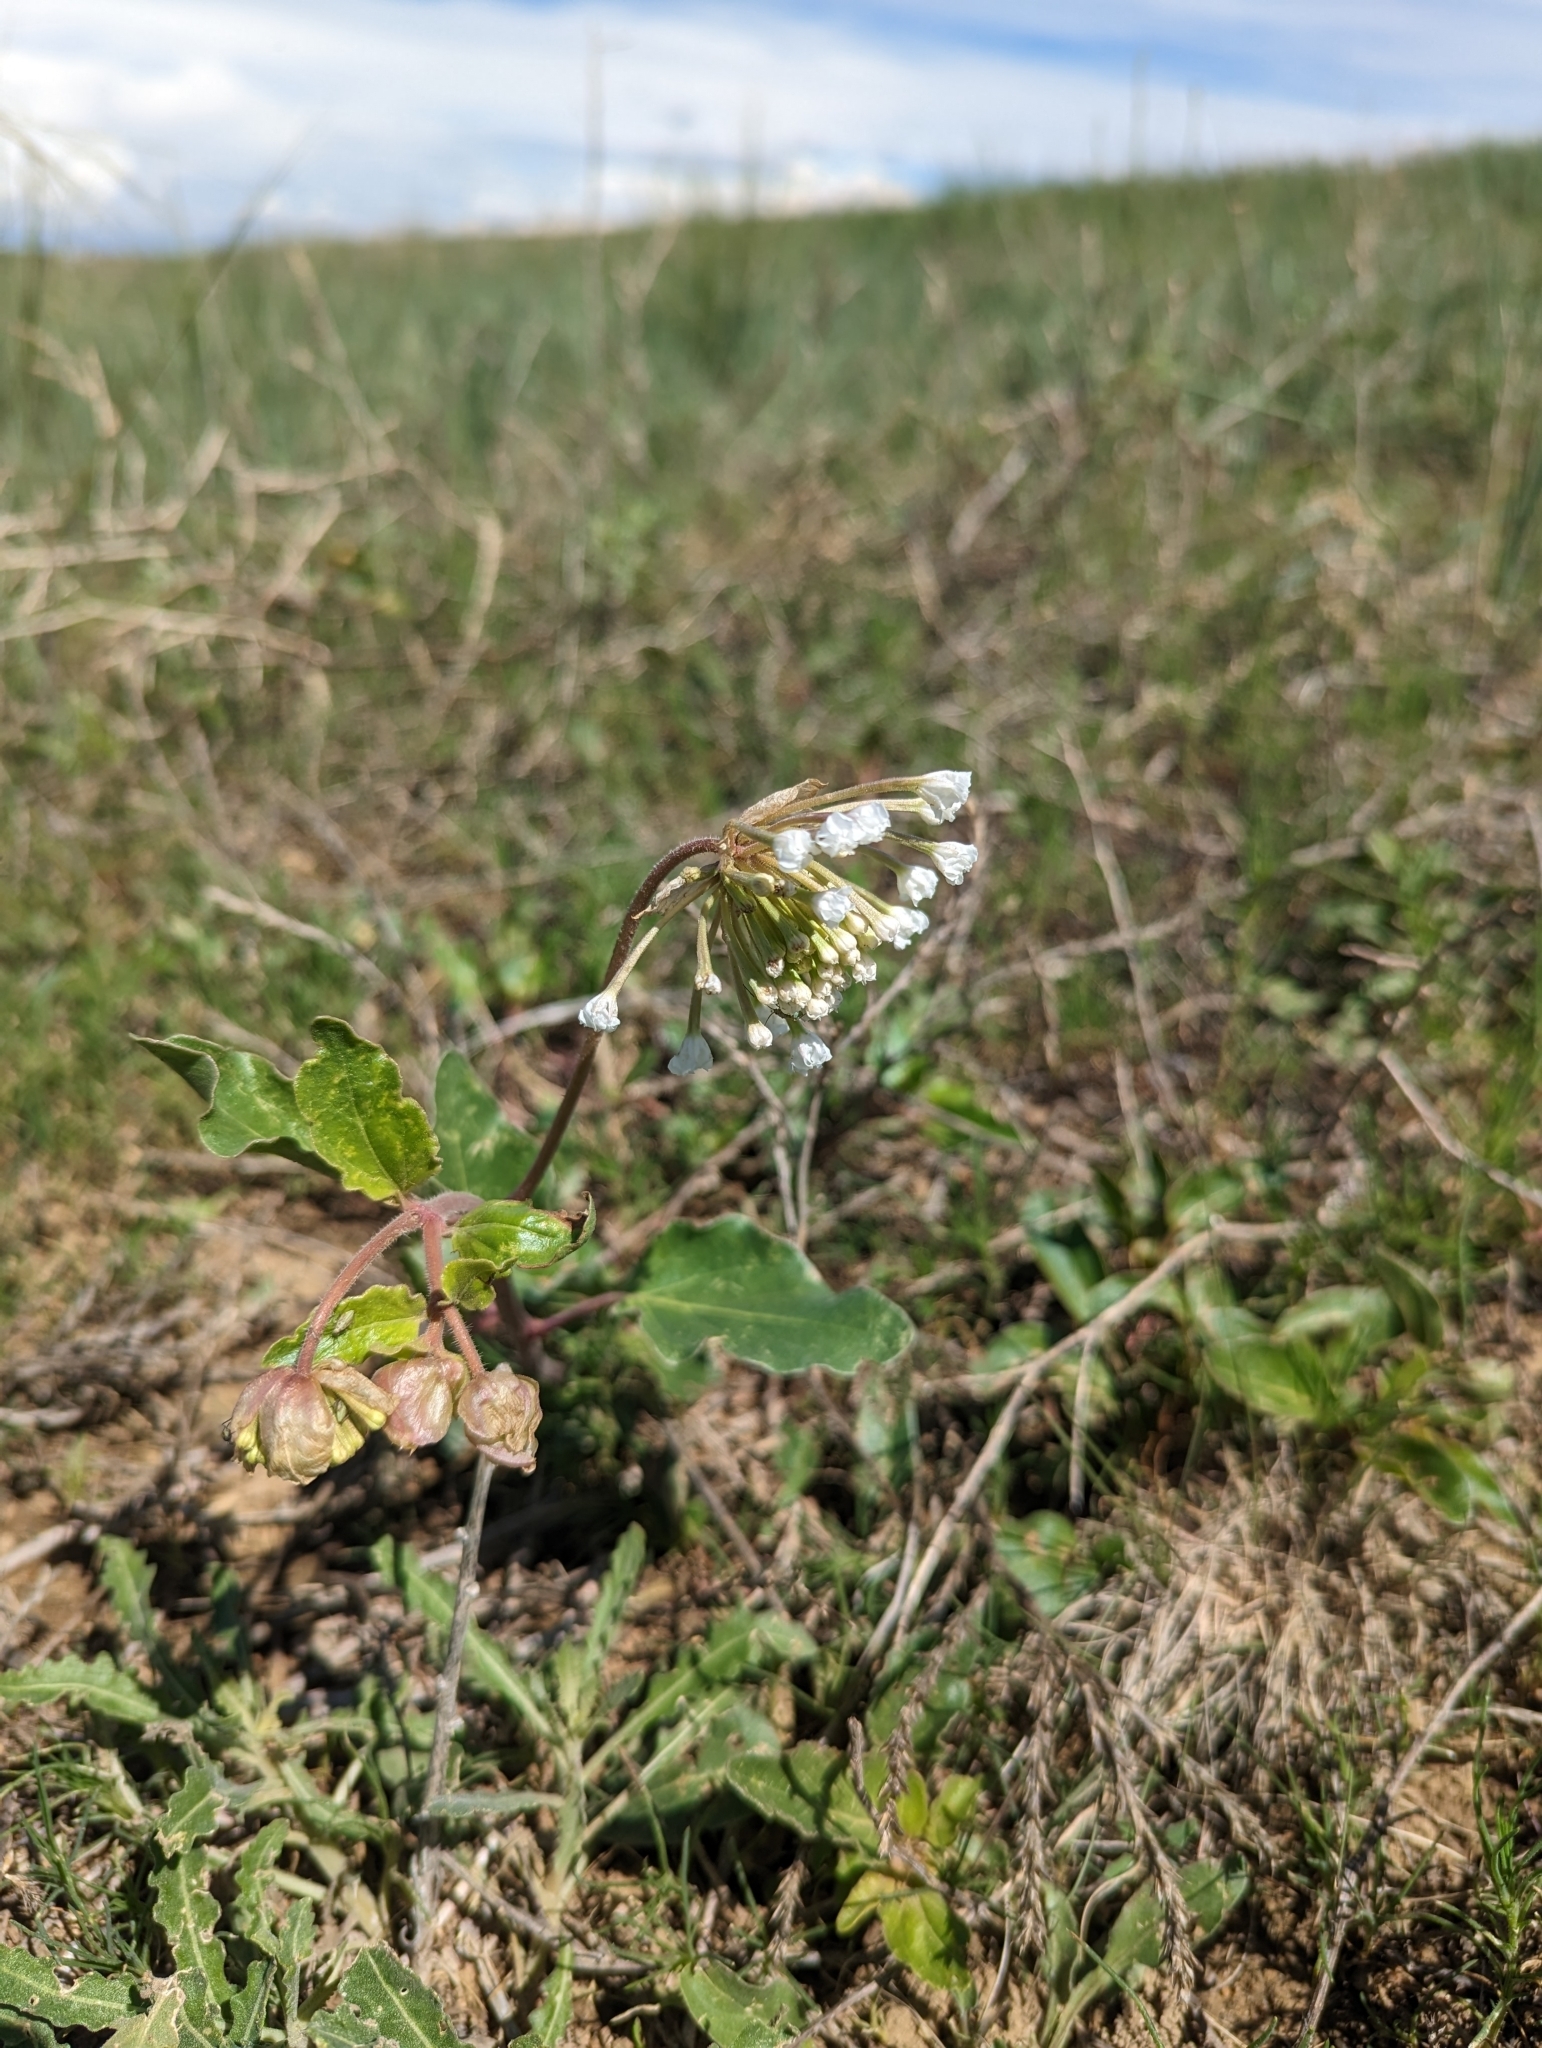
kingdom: Plantae
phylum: Tracheophyta
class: Magnoliopsida
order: Caryophyllales
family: Nyctaginaceae
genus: Abronia
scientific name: Abronia fragrans
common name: Fragrant sand-verbena
